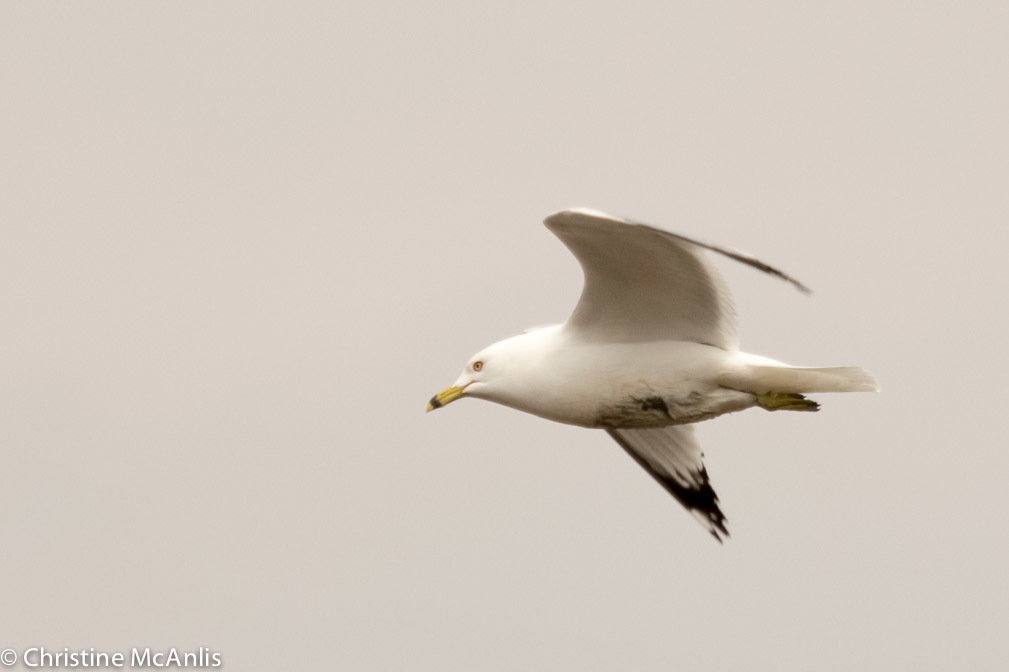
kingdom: Animalia
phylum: Chordata
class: Aves
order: Charadriiformes
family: Laridae
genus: Larus
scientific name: Larus delawarensis
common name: Ring-billed gull
